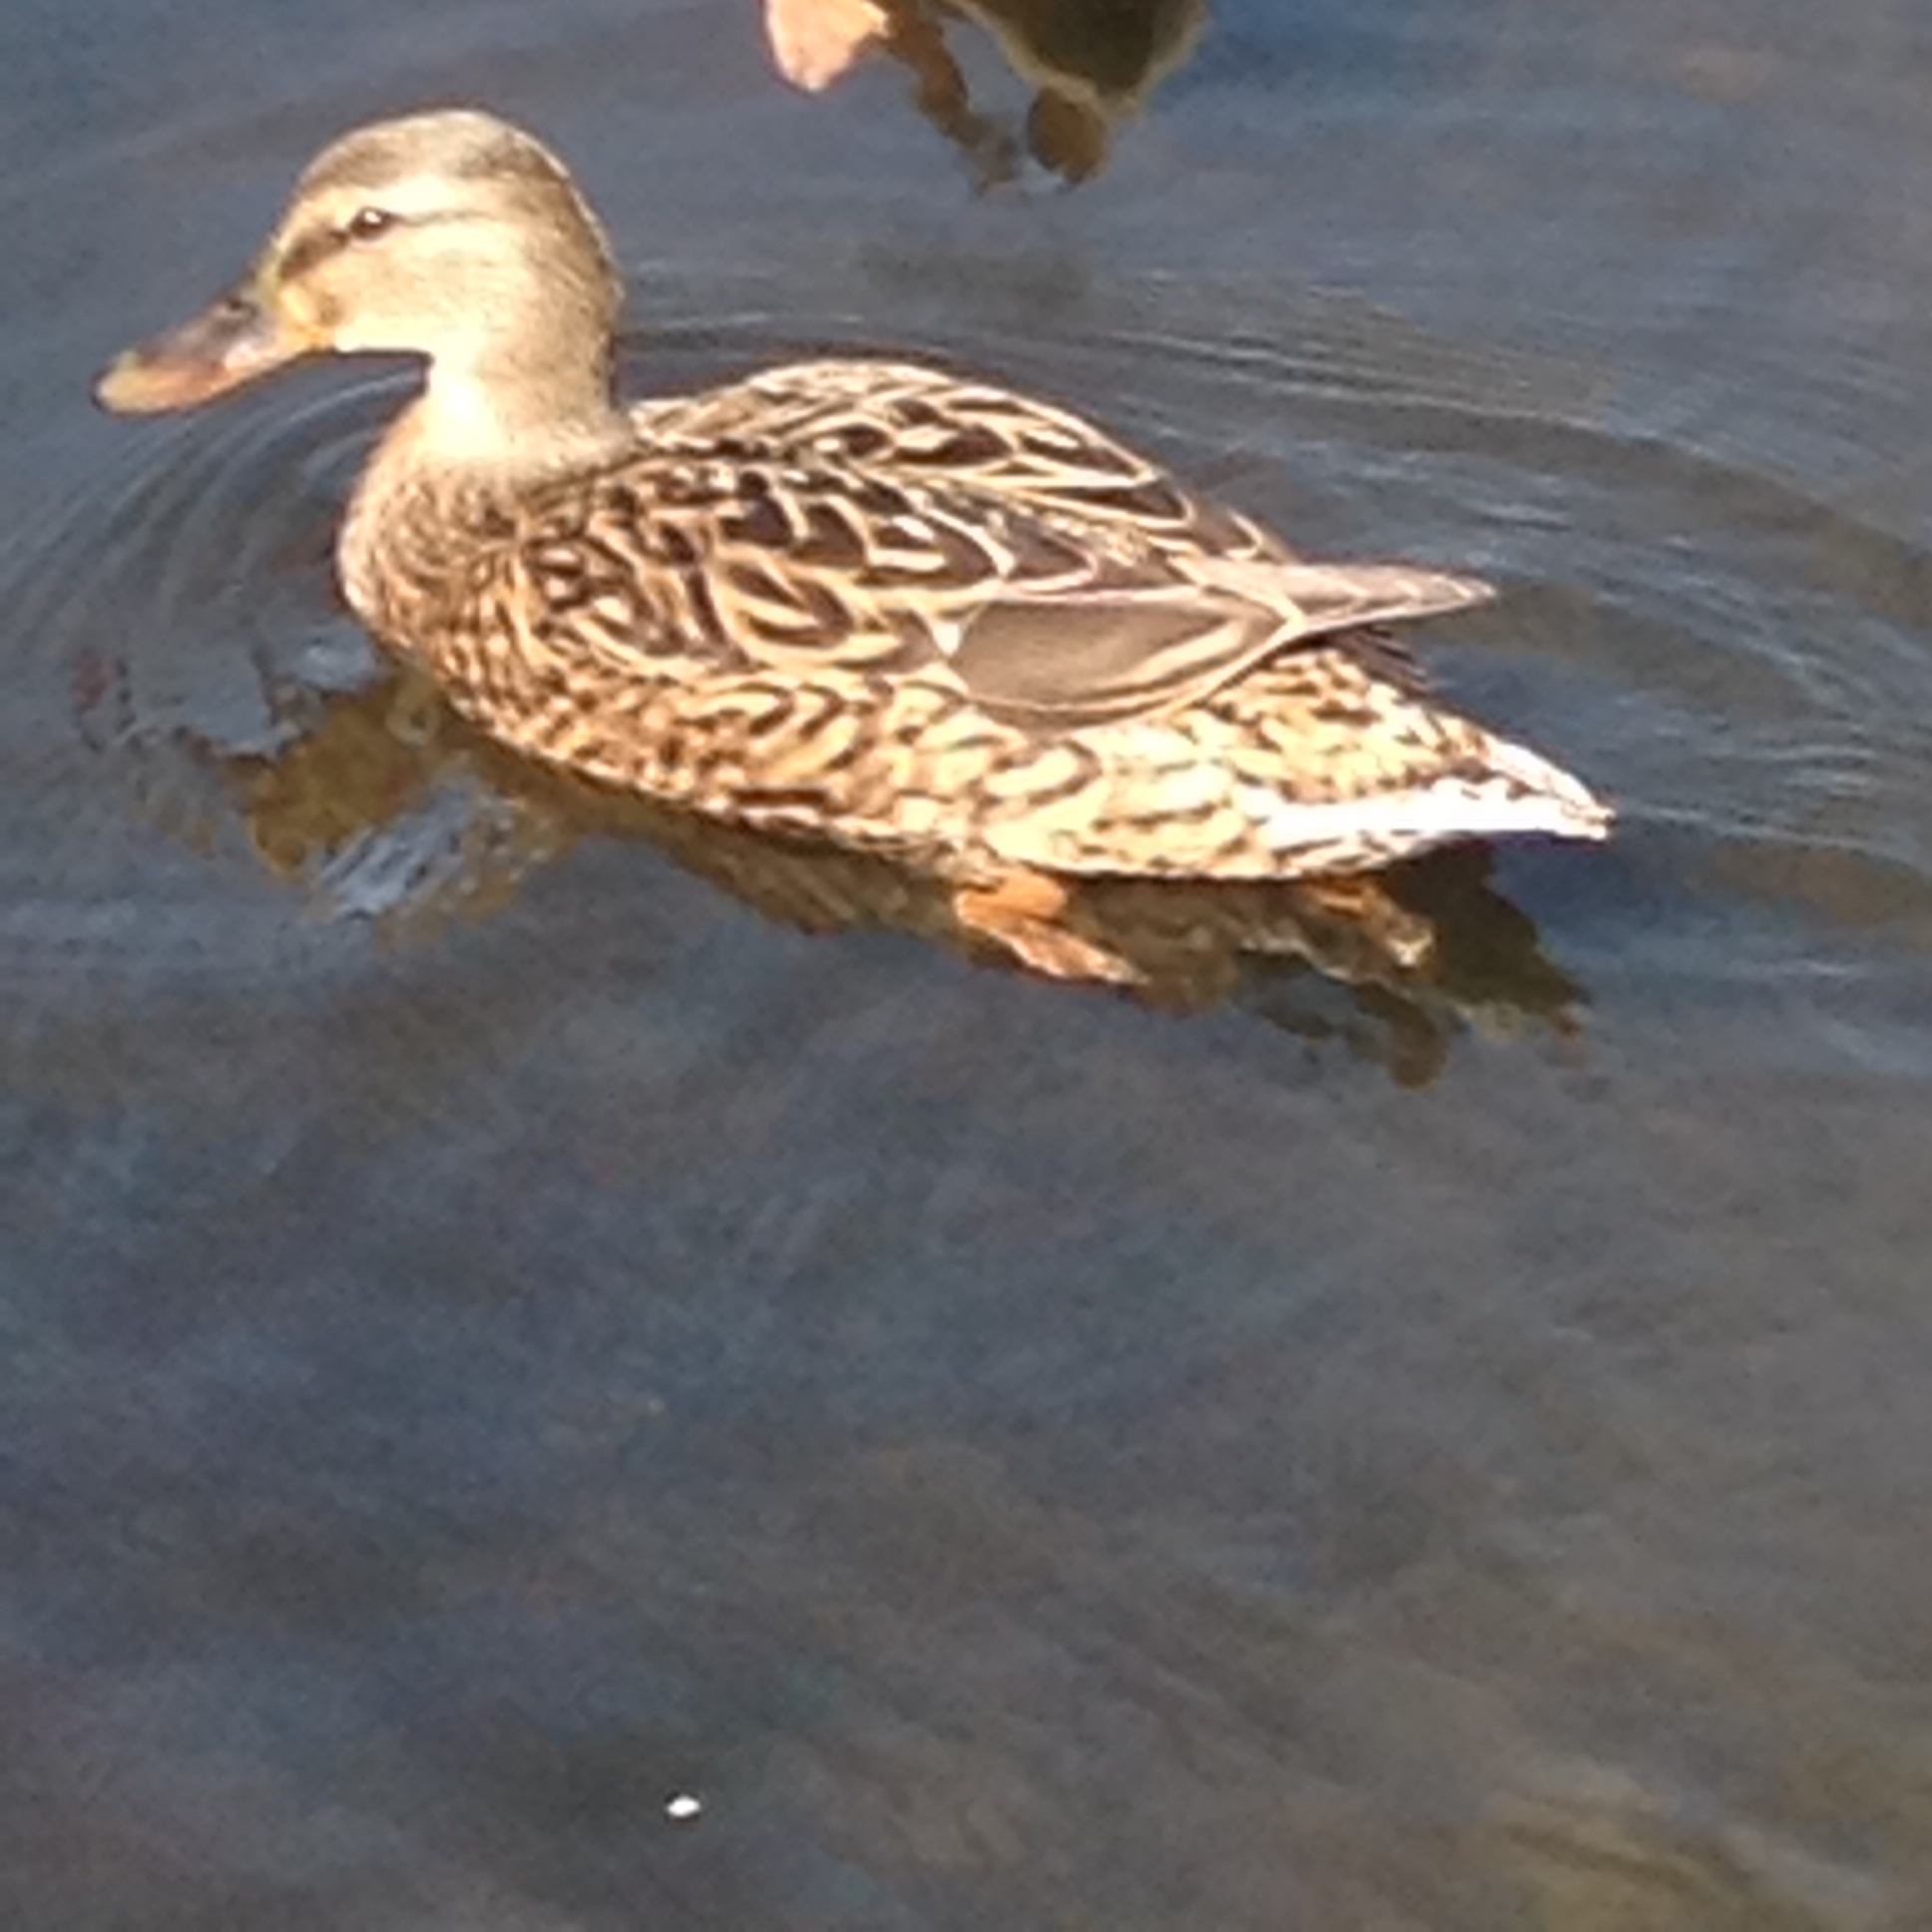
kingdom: Animalia
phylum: Chordata
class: Aves
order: Anseriformes
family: Anatidae
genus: Anas
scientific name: Anas platyrhynchos
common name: Mallard
